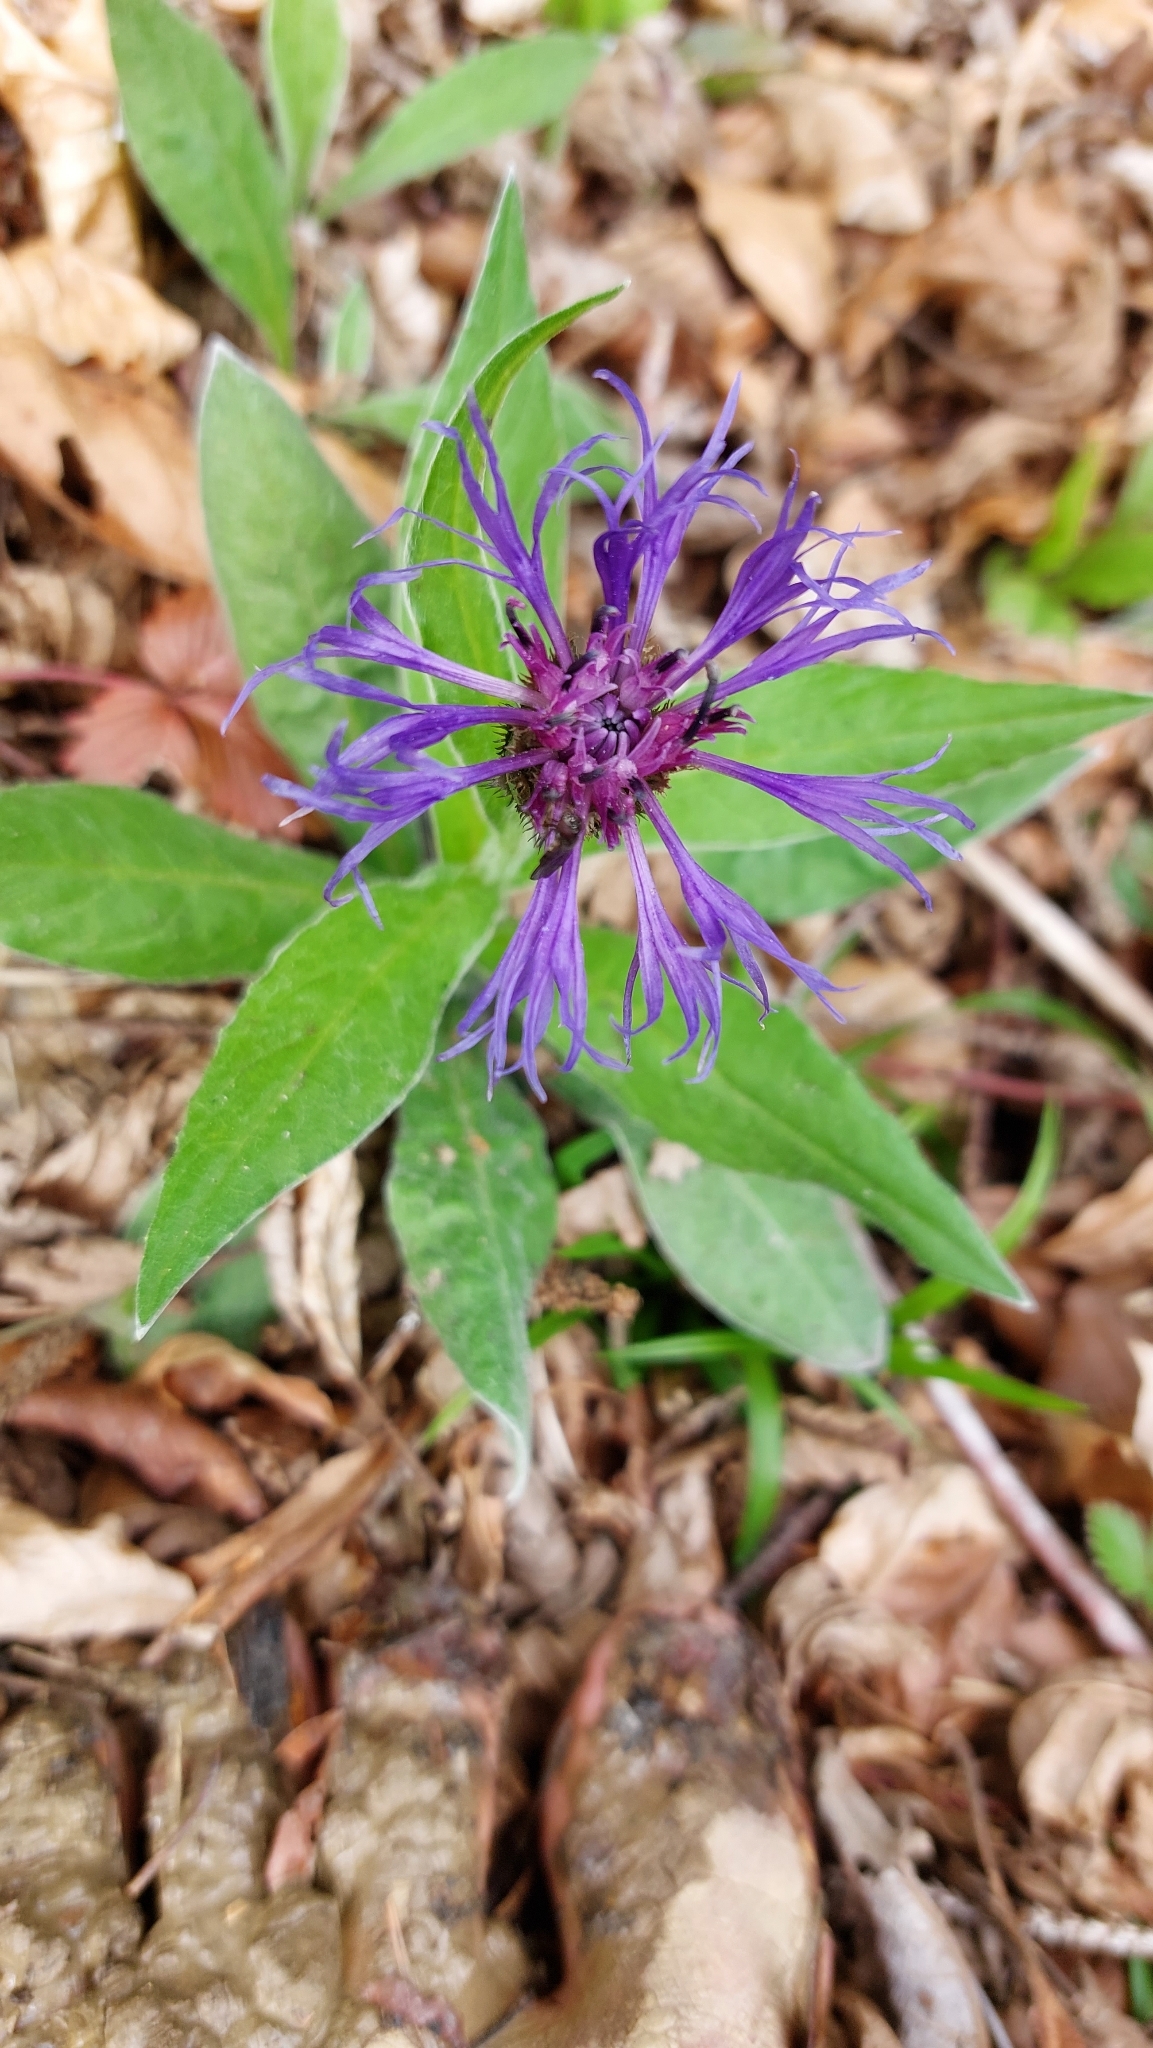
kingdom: Plantae
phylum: Tracheophyta
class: Magnoliopsida
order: Asterales
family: Asteraceae
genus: Centaurea
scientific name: Centaurea montana
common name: Perennial cornflower
